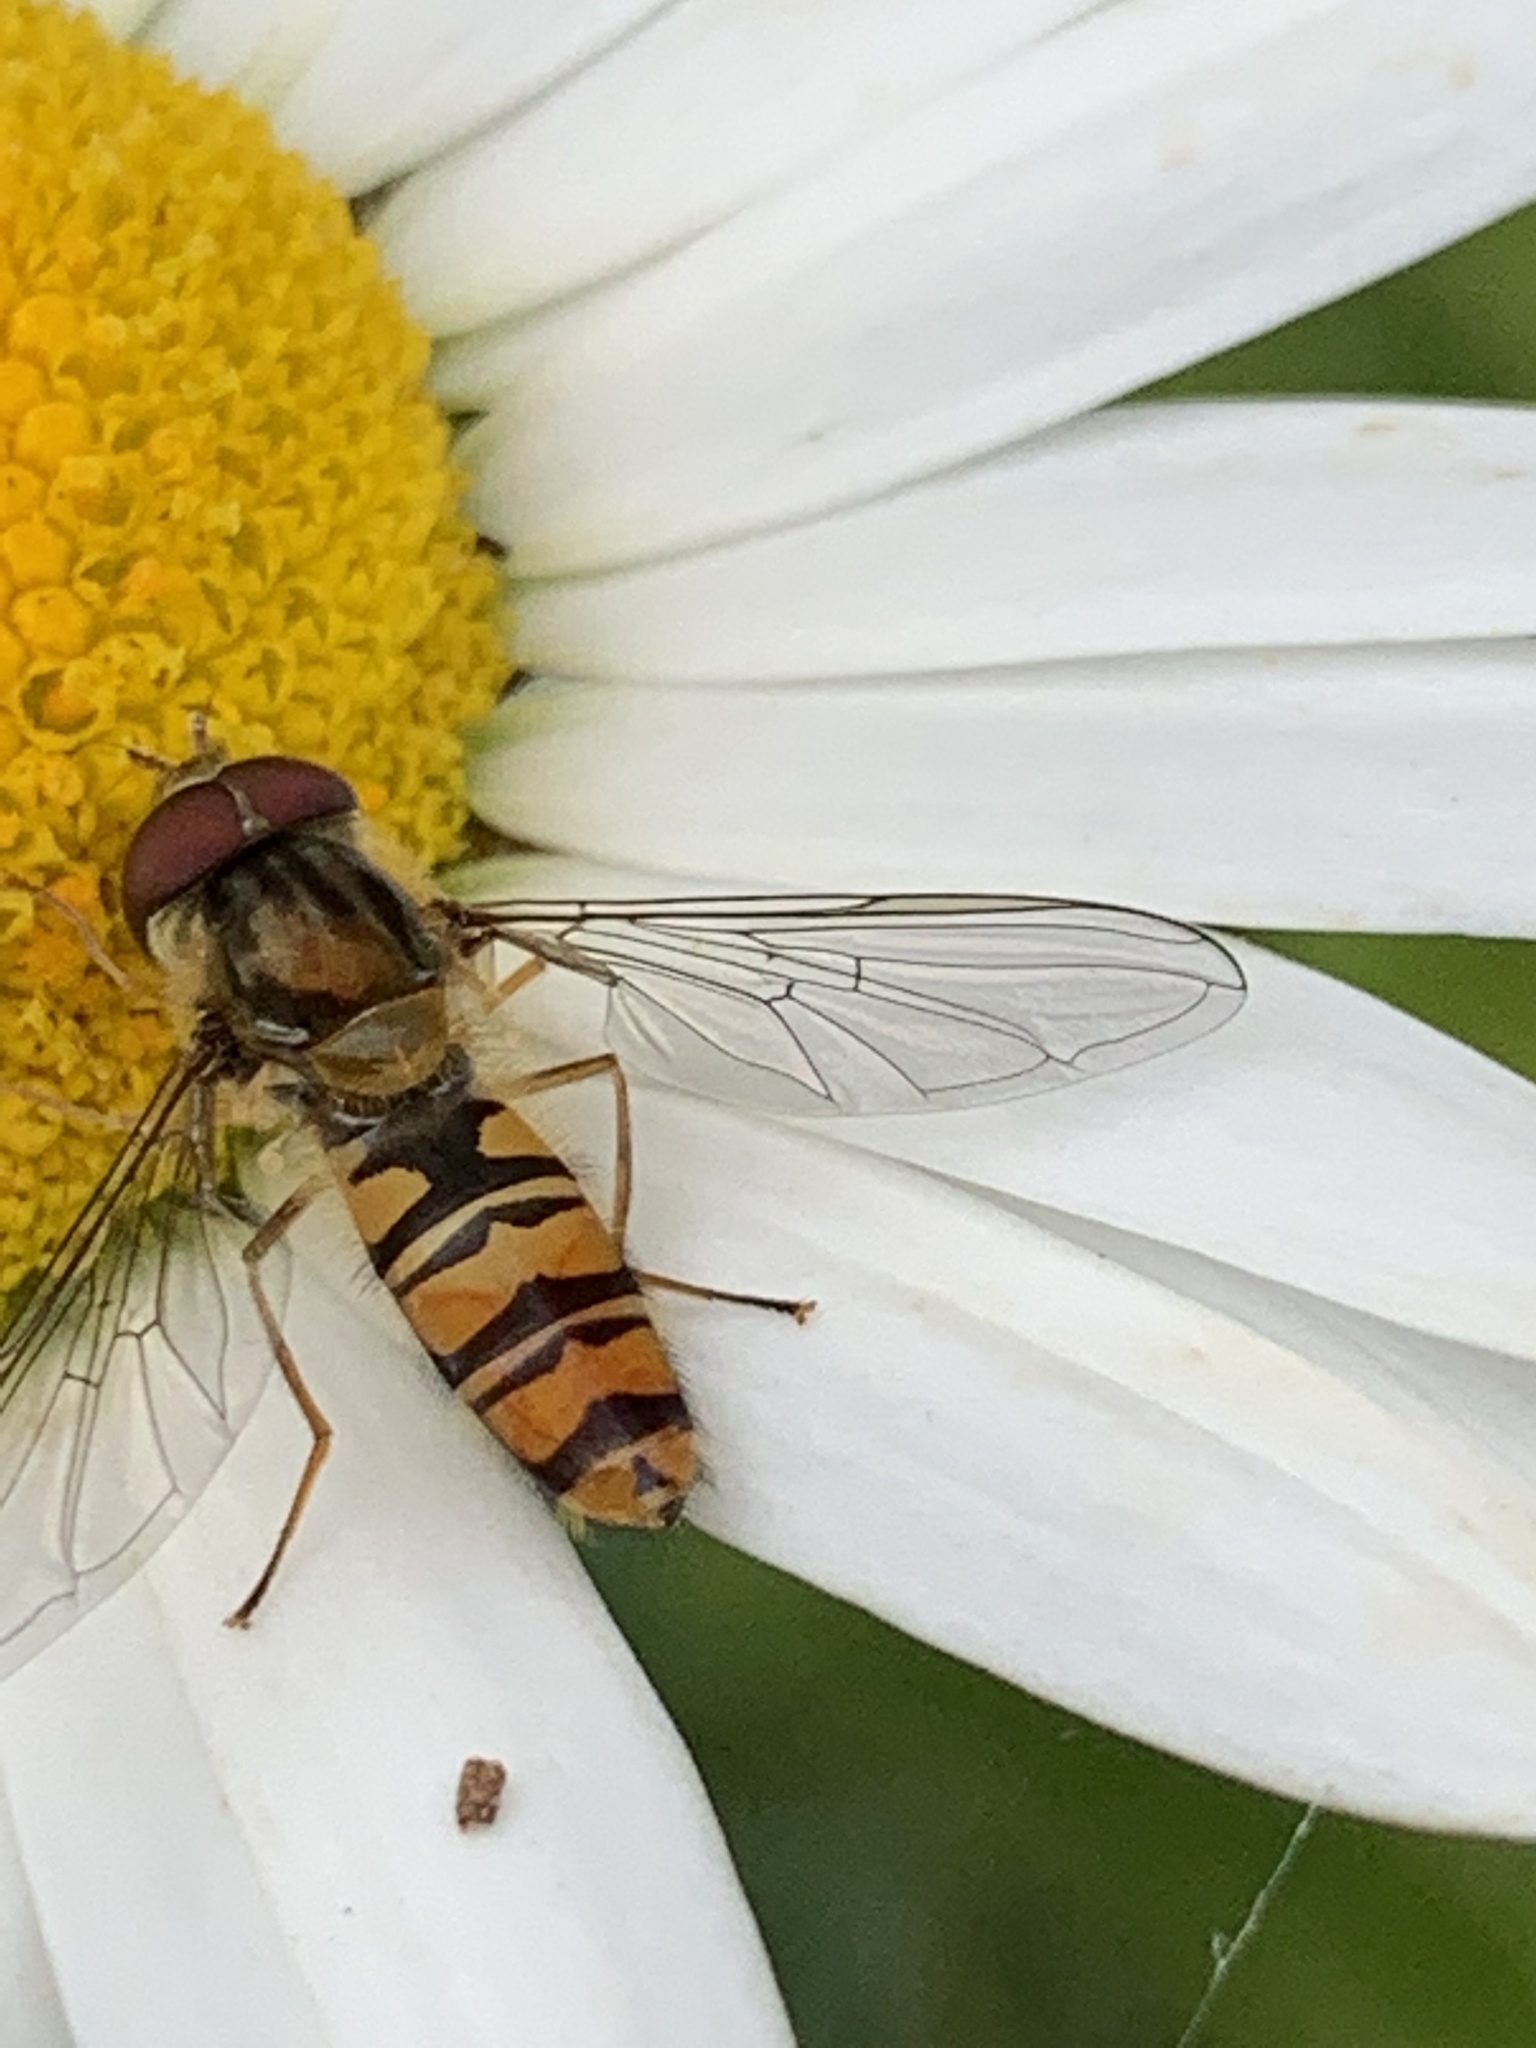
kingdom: Animalia
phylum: Arthropoda
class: Insecta
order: Diptera
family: Syrphidae
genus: Episyrphus
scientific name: Episyrphus balteatus
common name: Marmalade hoverfly
